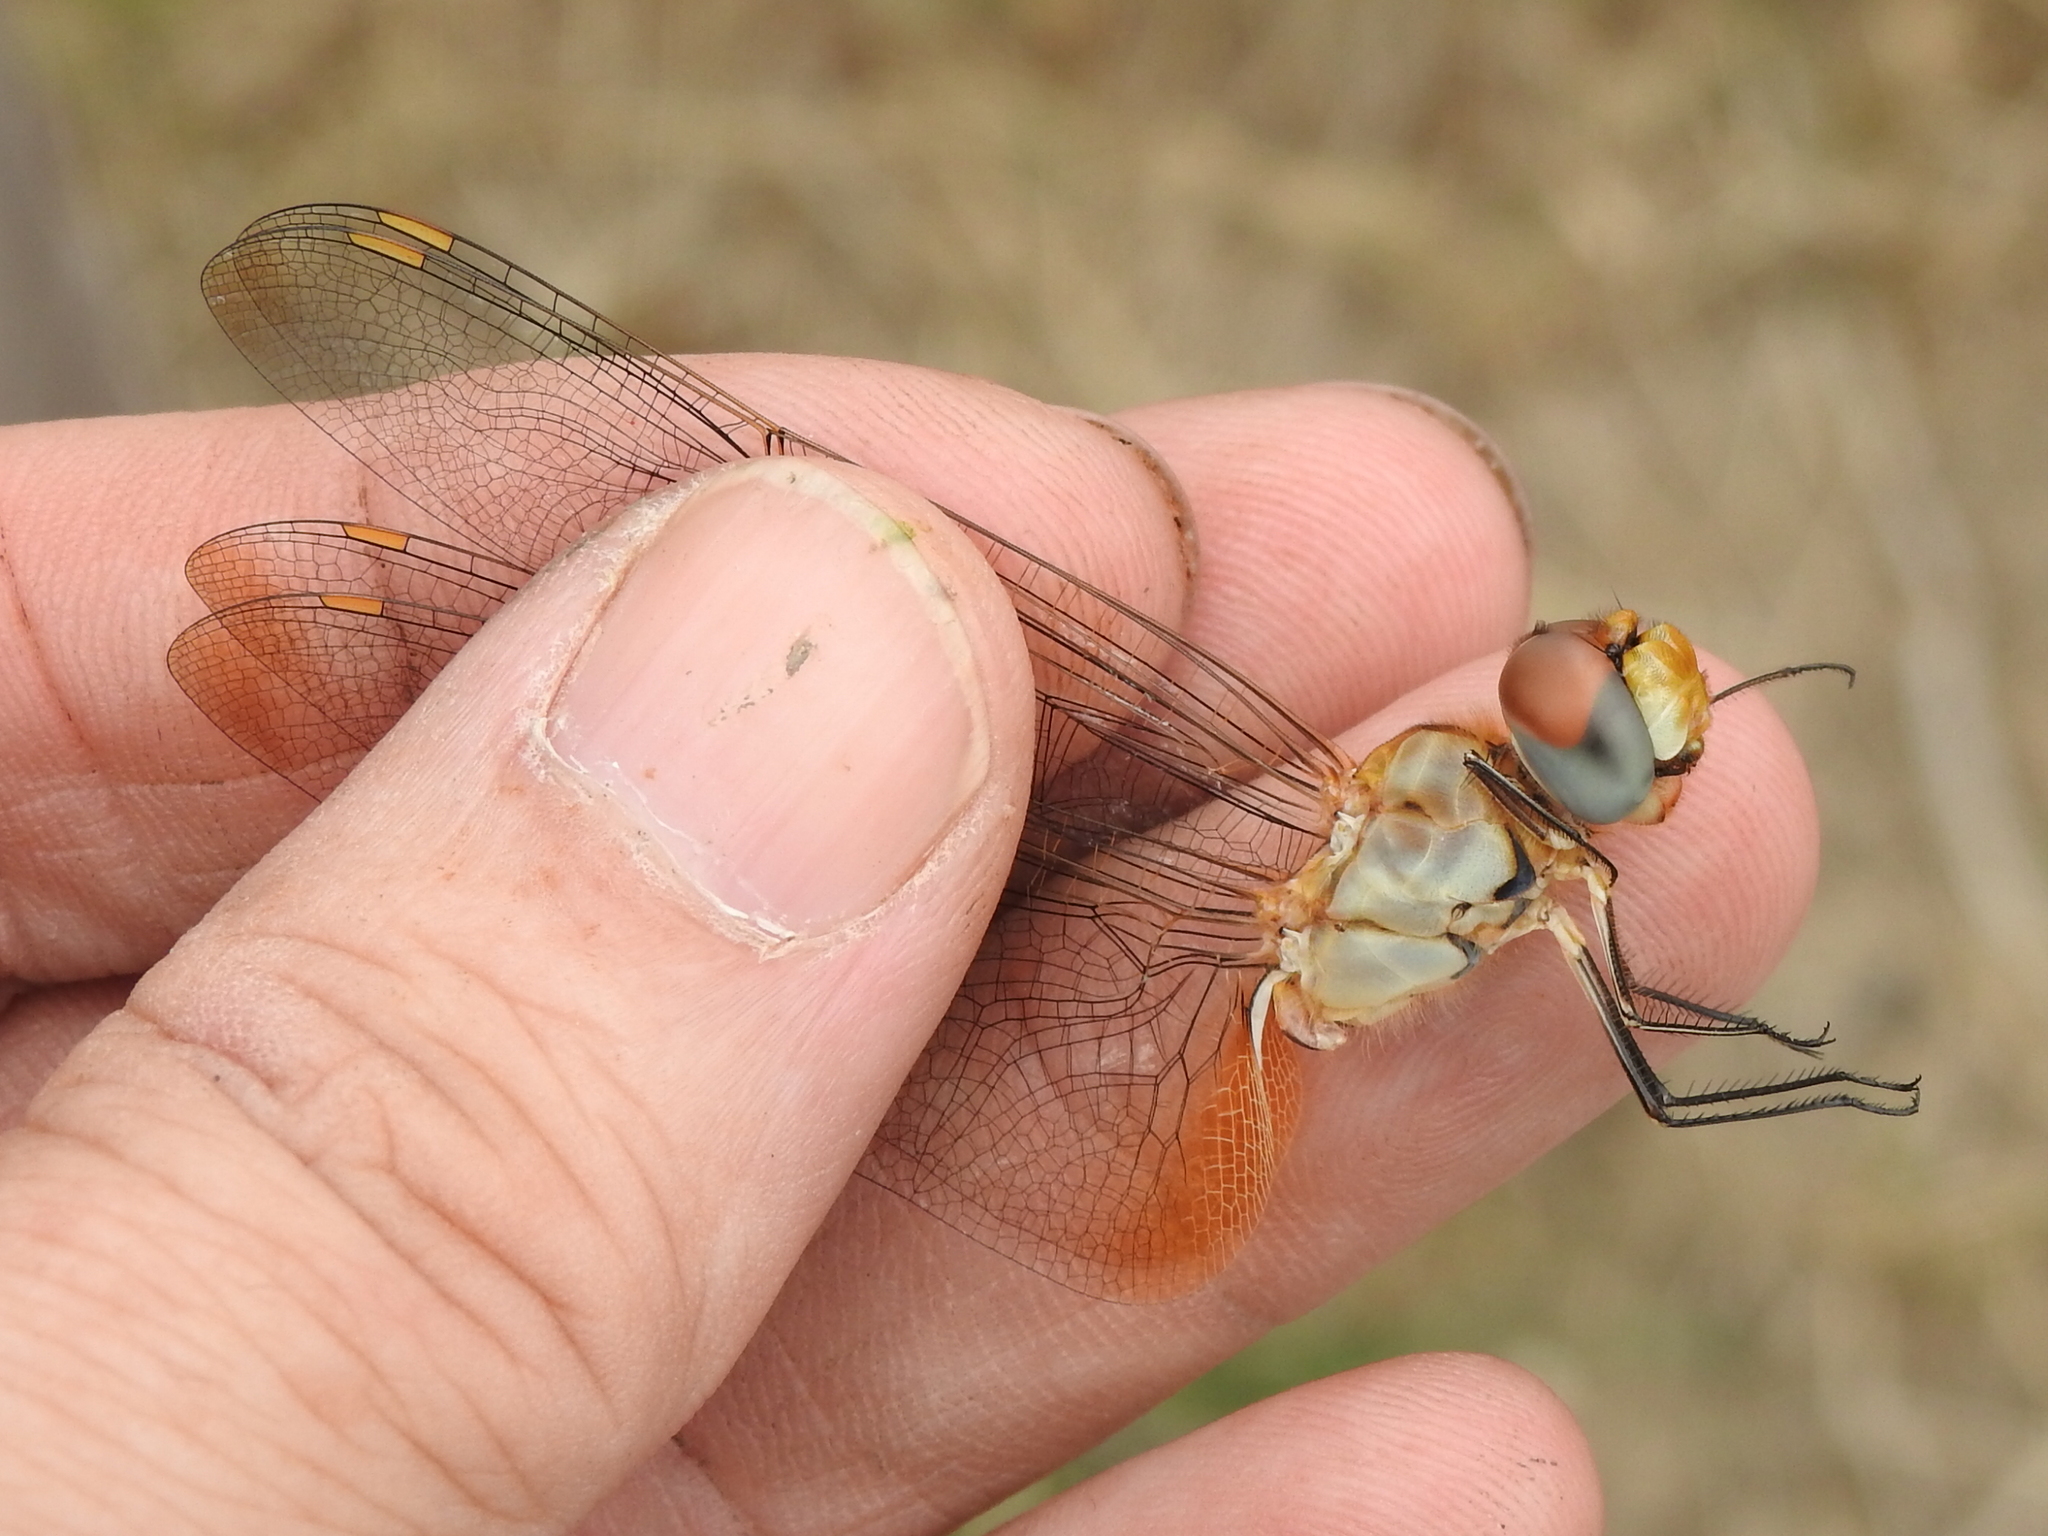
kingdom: Animalia
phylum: Arthropoda
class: Insecta
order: Odonata
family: Libellulidae
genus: Pantala
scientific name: Pantala flavescens
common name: Wandering glider
